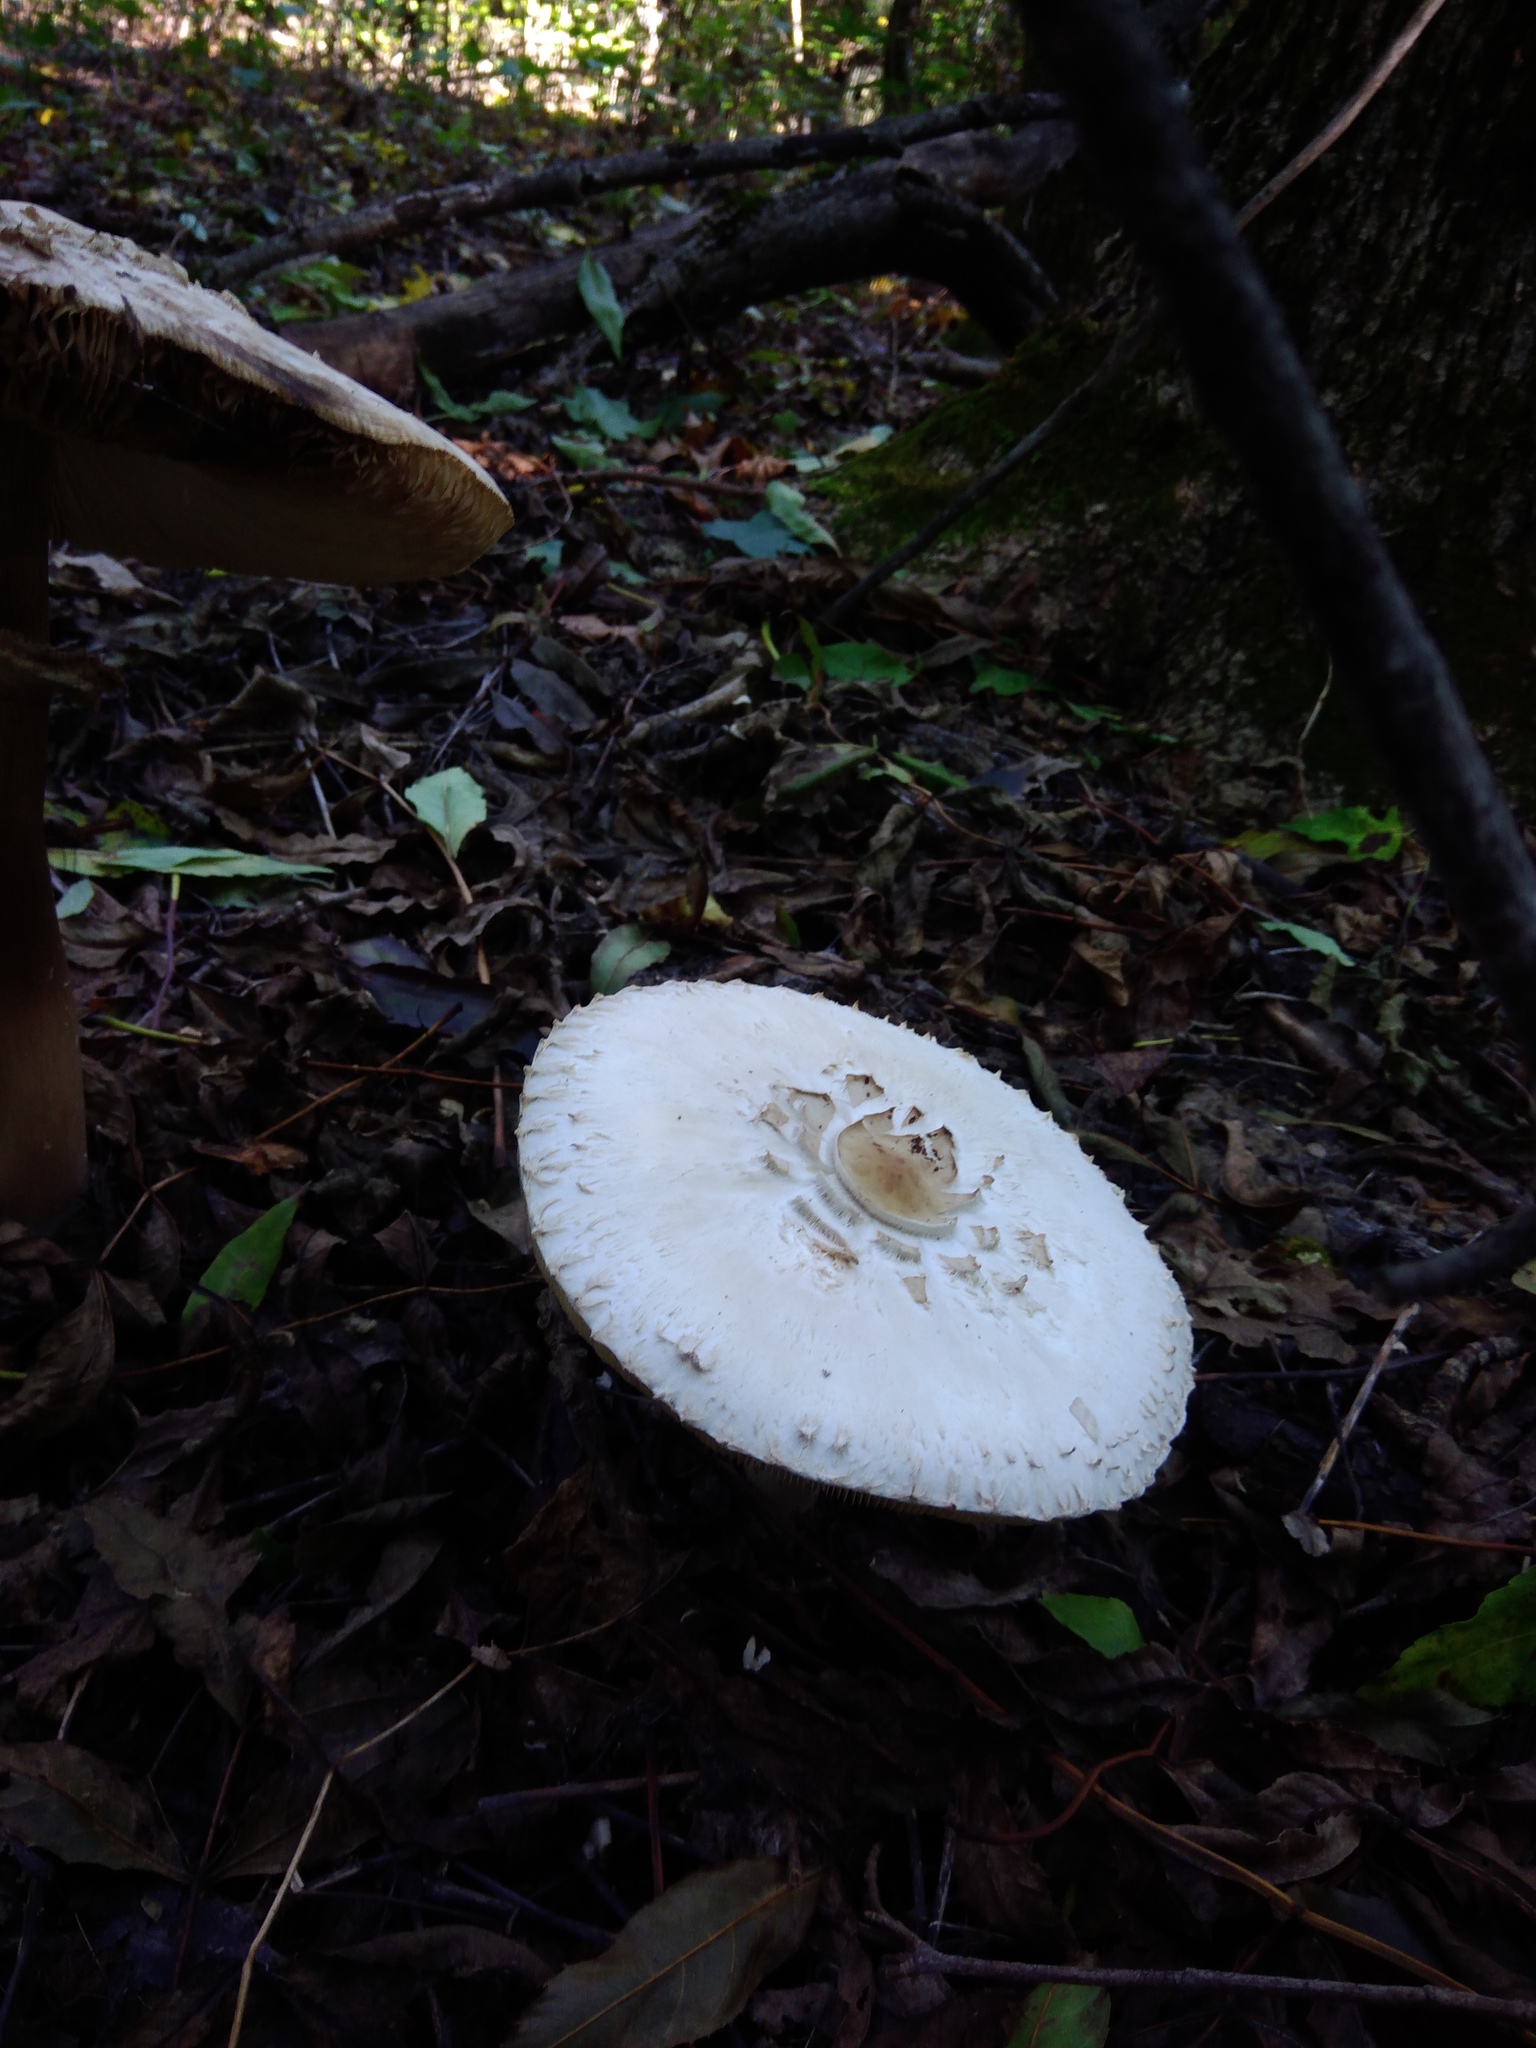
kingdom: Fungi
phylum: Basidiomycota
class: Agaricomycetes
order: Agaricales
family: Agaricaceae
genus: Chlorophyllum
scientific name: Chlorophyllum rhacodes
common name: Shaggy parasol
